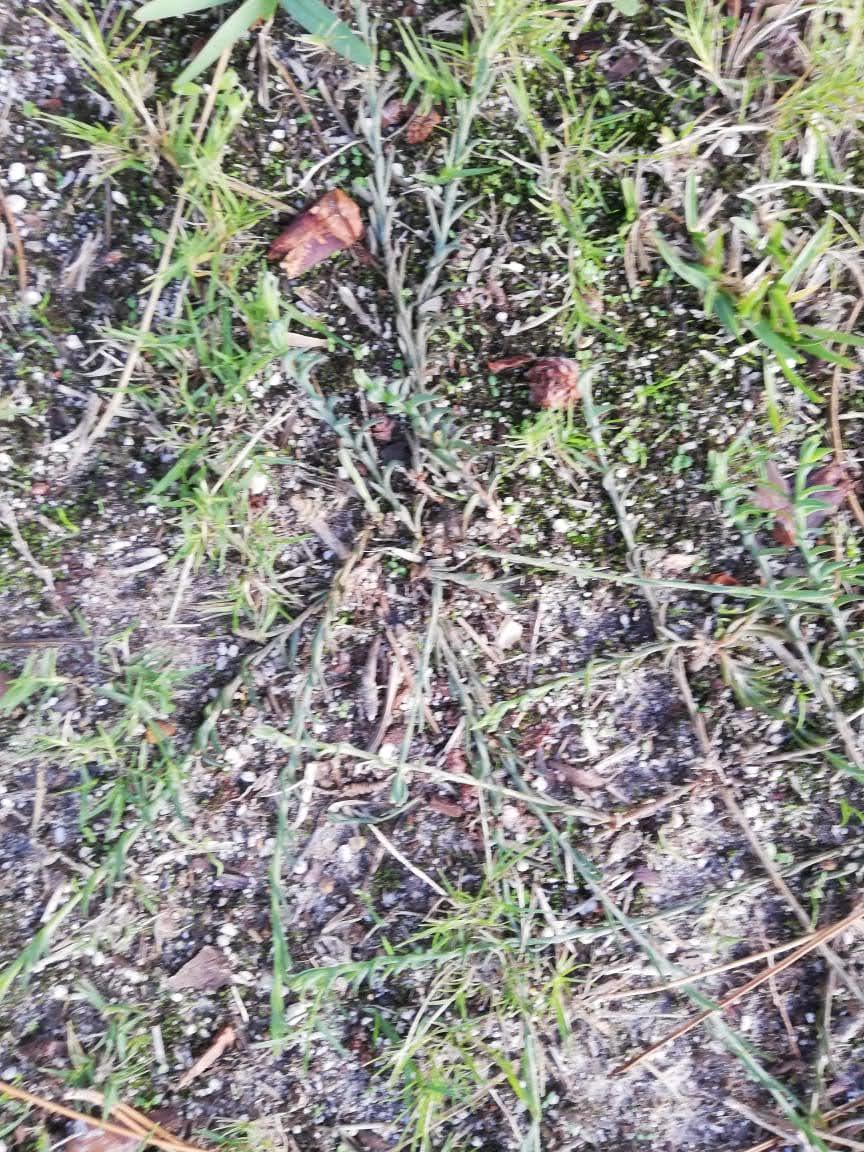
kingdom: Plantae
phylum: Tracheophyta
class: Magnoliopsida
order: Santalales
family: Thesiaceae
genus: Thesium
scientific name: Thesium ecklonianum
